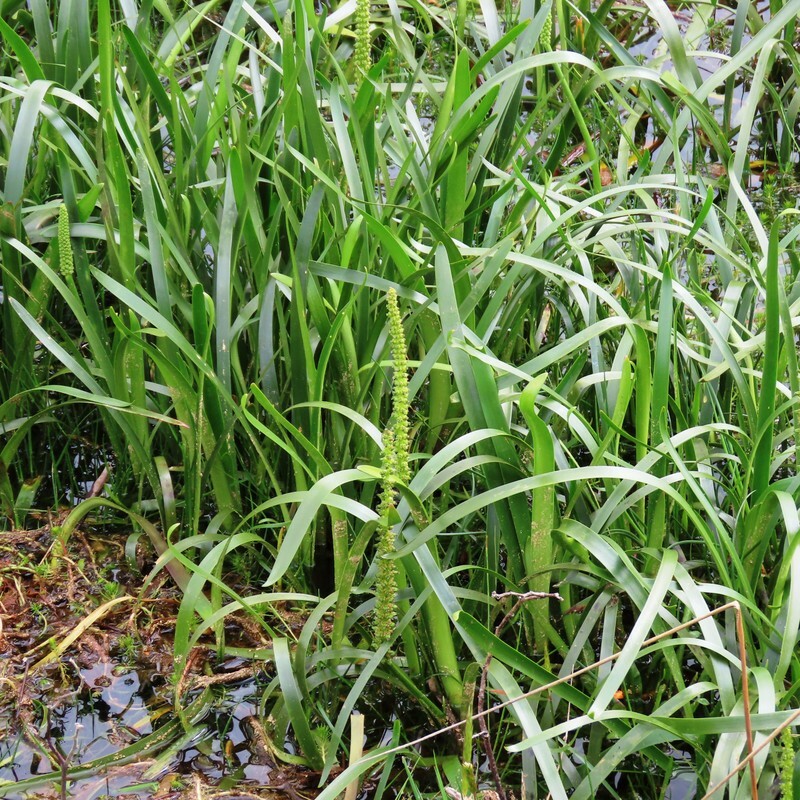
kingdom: Plantae
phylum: Tracheophyta
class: Liliopsida
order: Alismatales
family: Juncaginaceae
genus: Cycnogeton
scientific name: Cycnogeton procerum
